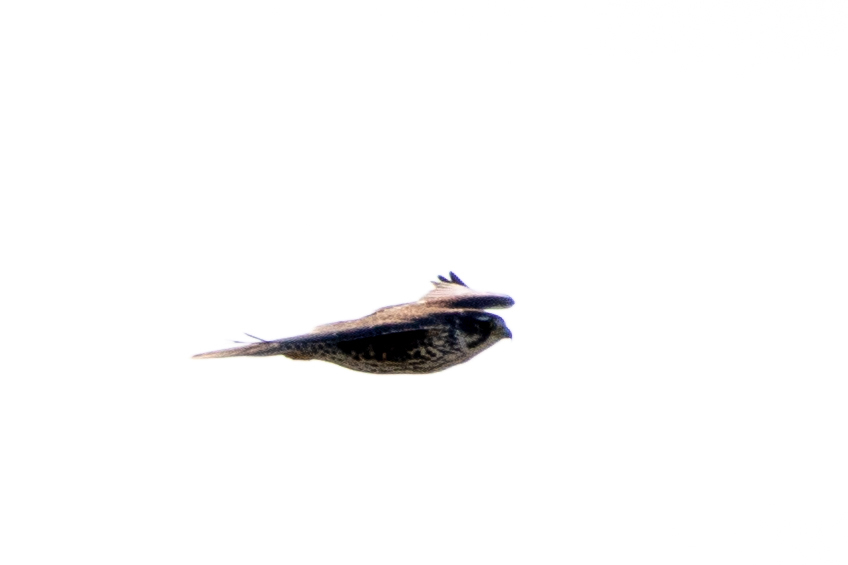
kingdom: Animalia
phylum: Chordata
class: Aves
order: Falconiformes
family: Falconidae
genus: Falco
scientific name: Falco mexicanus
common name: Prairie falcon
